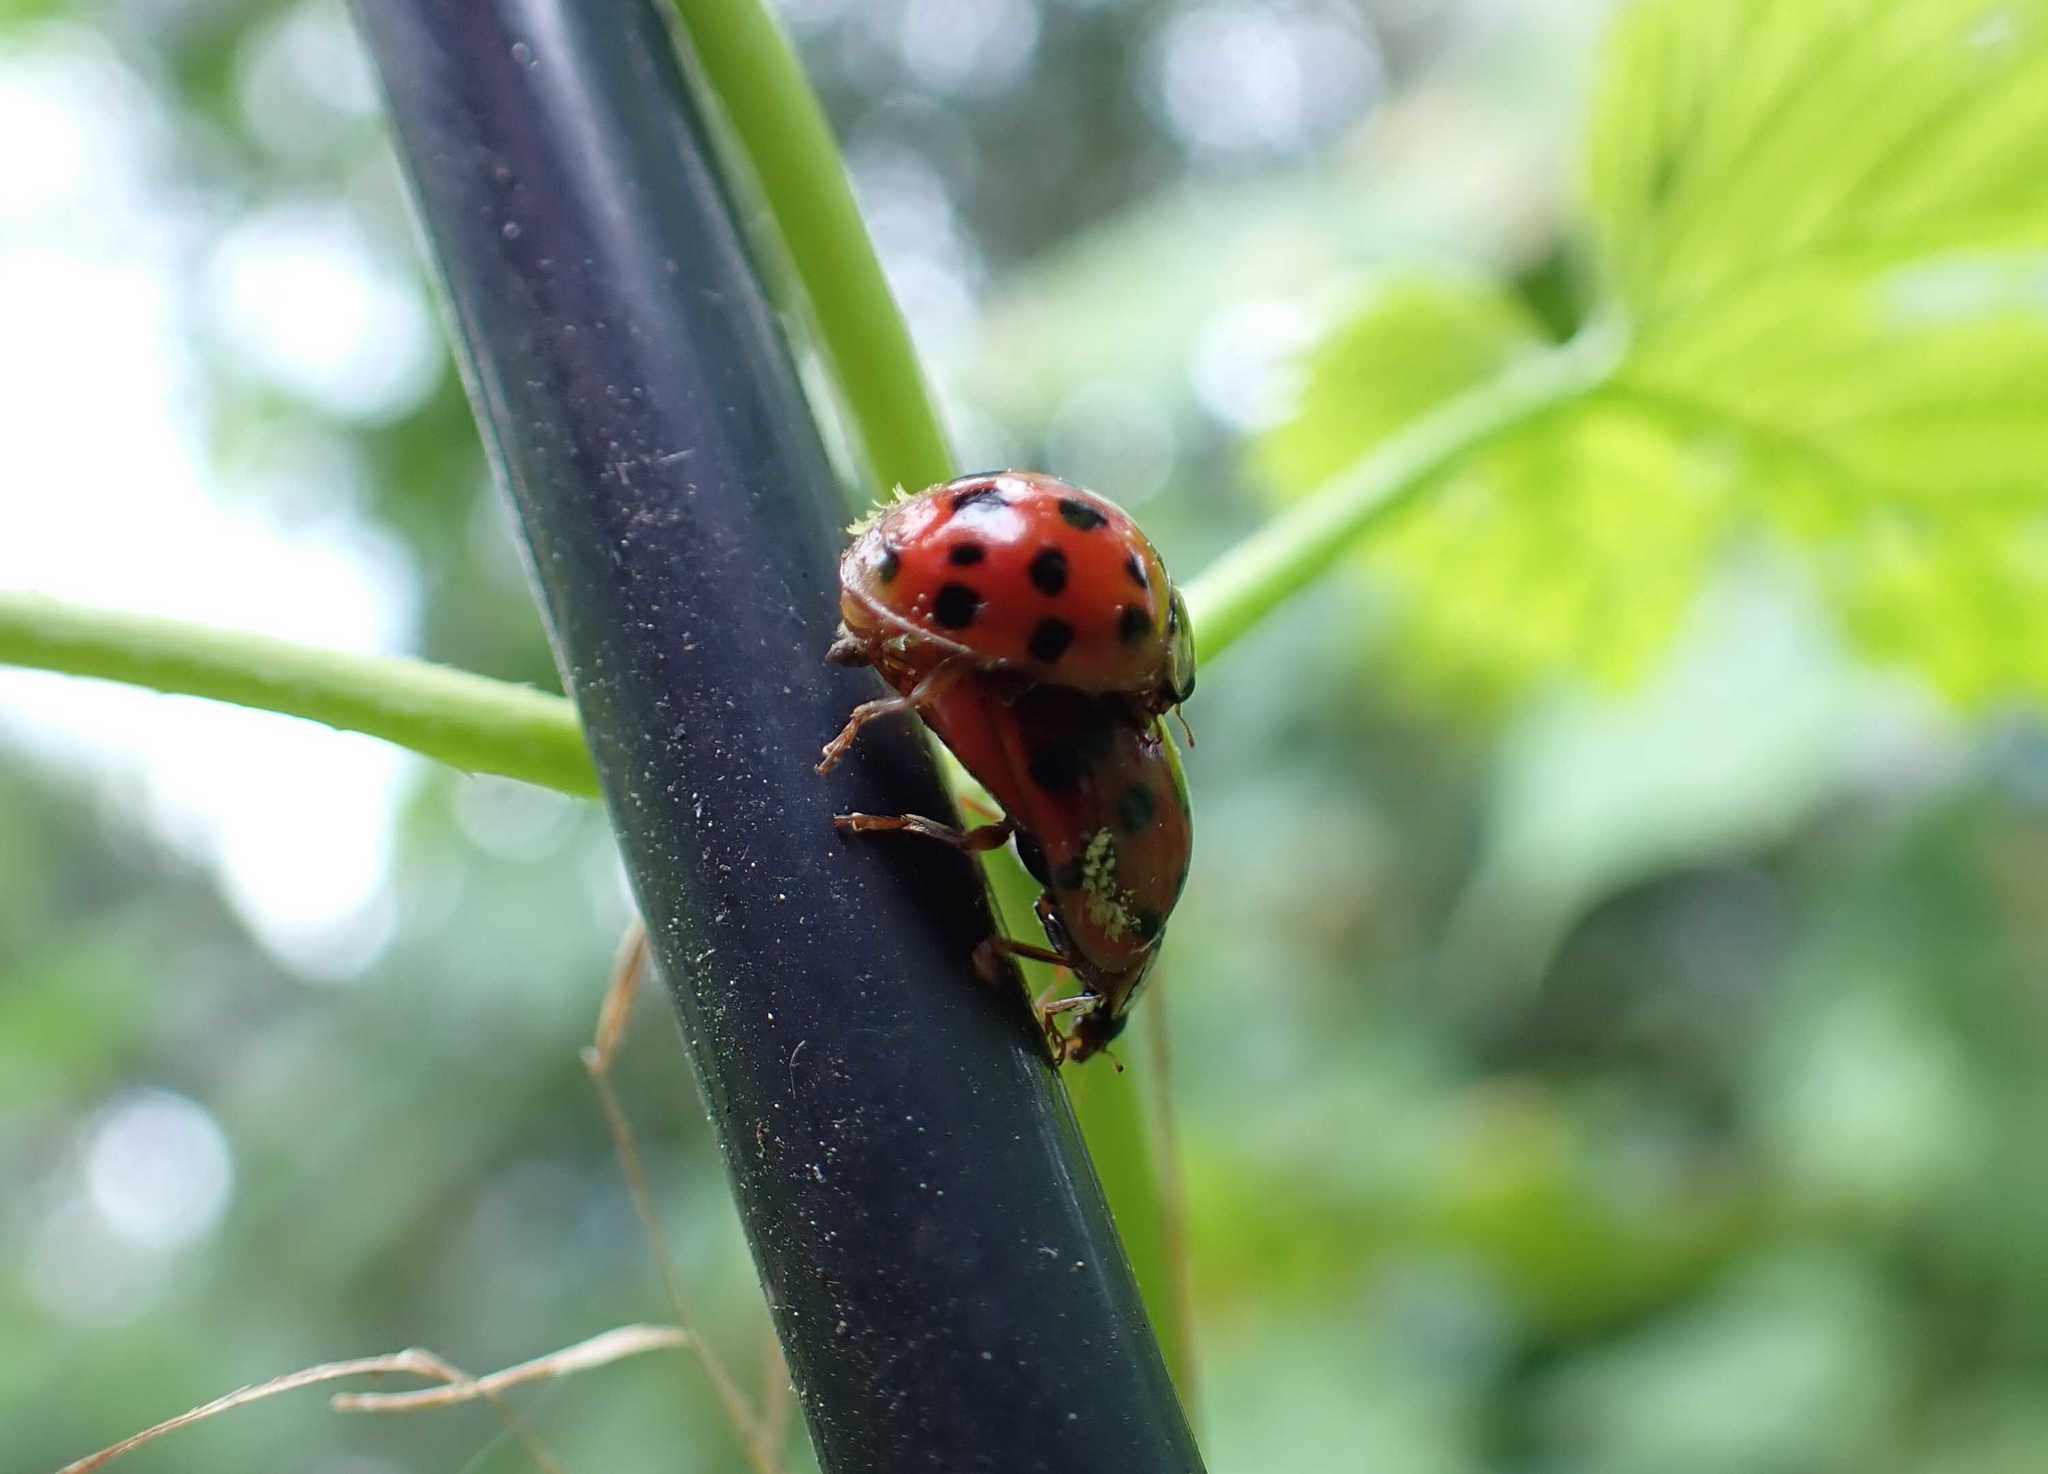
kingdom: Fungi
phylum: Ascomycota
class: Laboulbeniomycetes
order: Laboulbeniales
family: Laboulbeniaceae
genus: Hesperomyces
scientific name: Hesperomyces harmoniae
